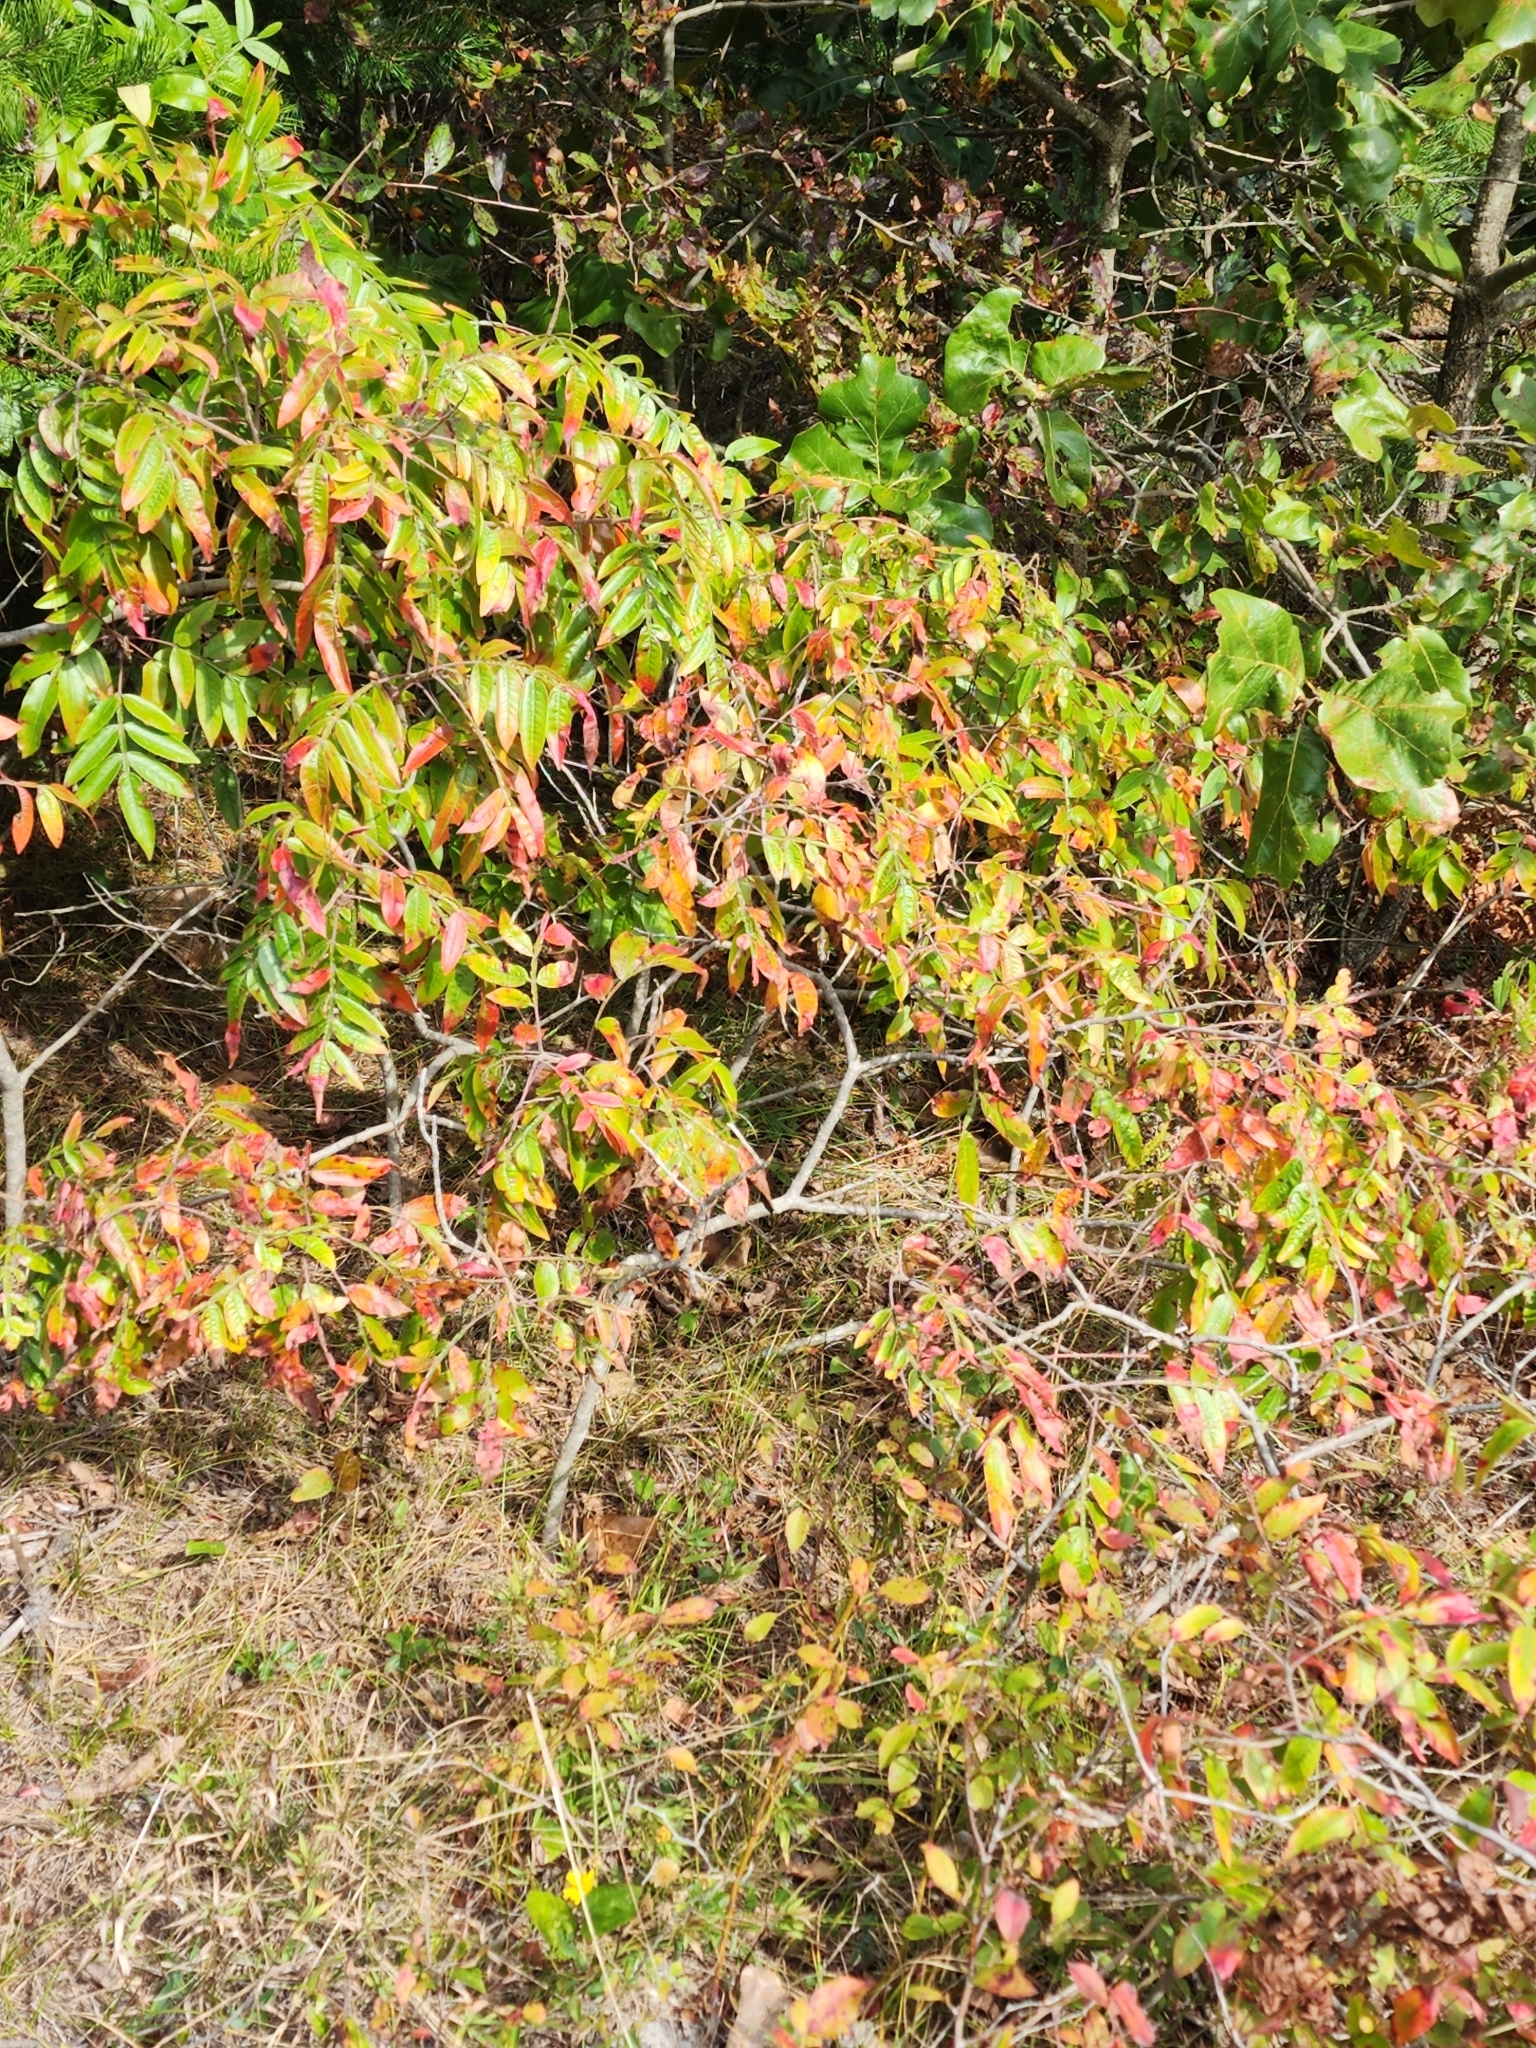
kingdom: Plantae
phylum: Tracheophyta
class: Magnoliopsida
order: Sapindales
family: Anacardiaceae
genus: Rhus
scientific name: Rhus copallina
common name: Shining sumac
